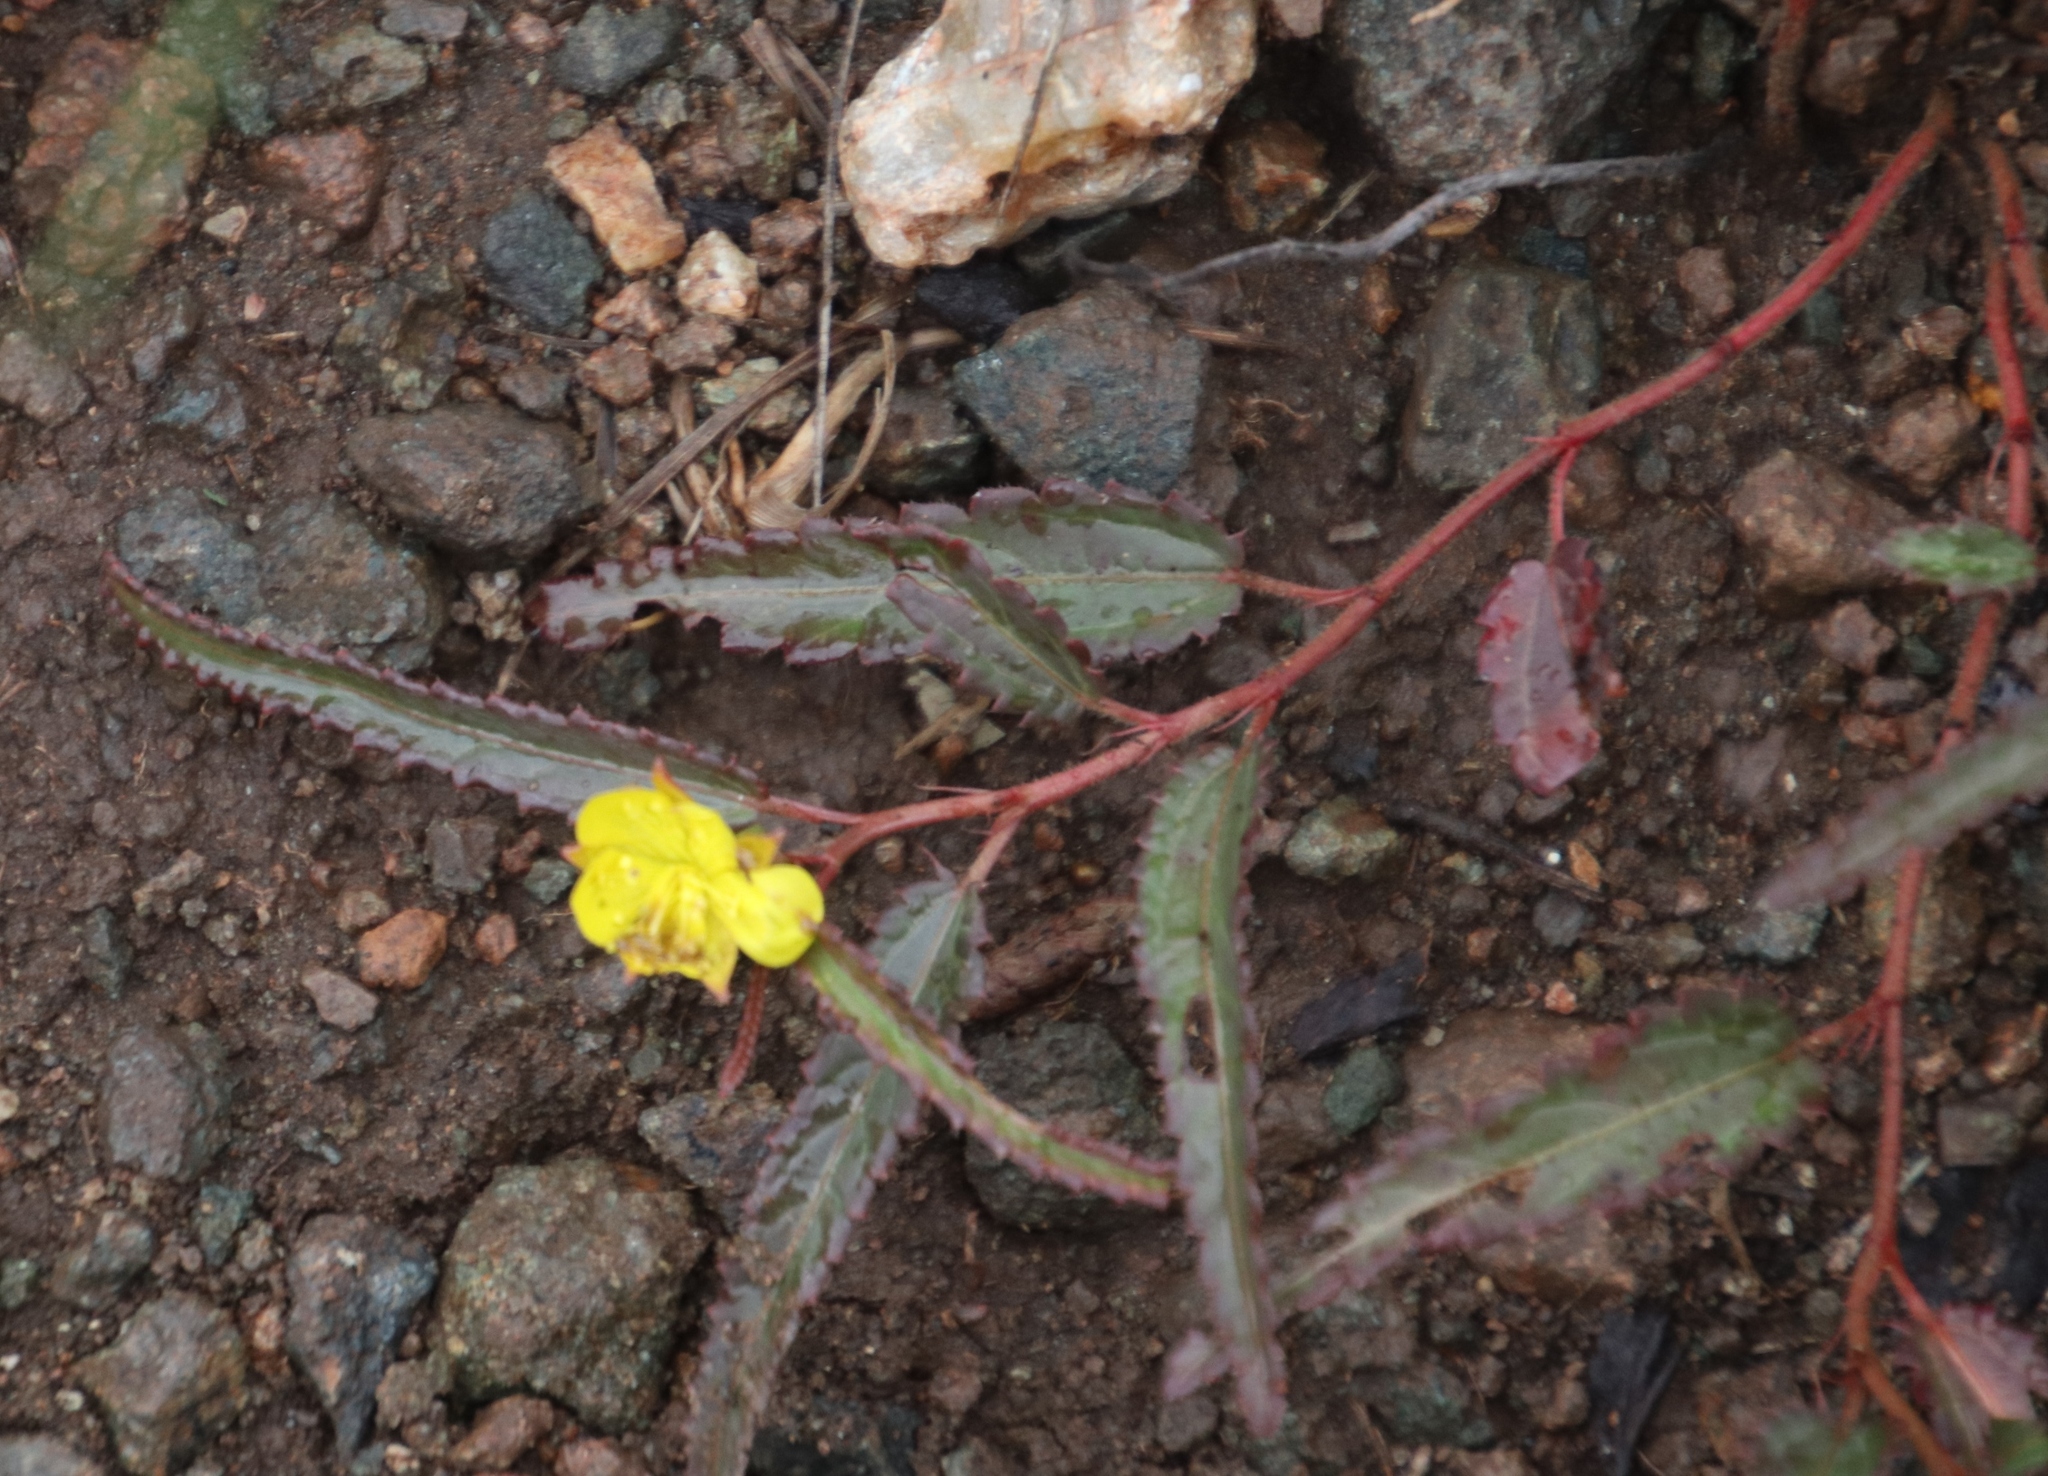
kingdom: Plantae
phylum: Tracheophyta
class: Magnoliopsida
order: Malvales
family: Malvaceae
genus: Corchorus
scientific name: Corchorus asplenifolius
